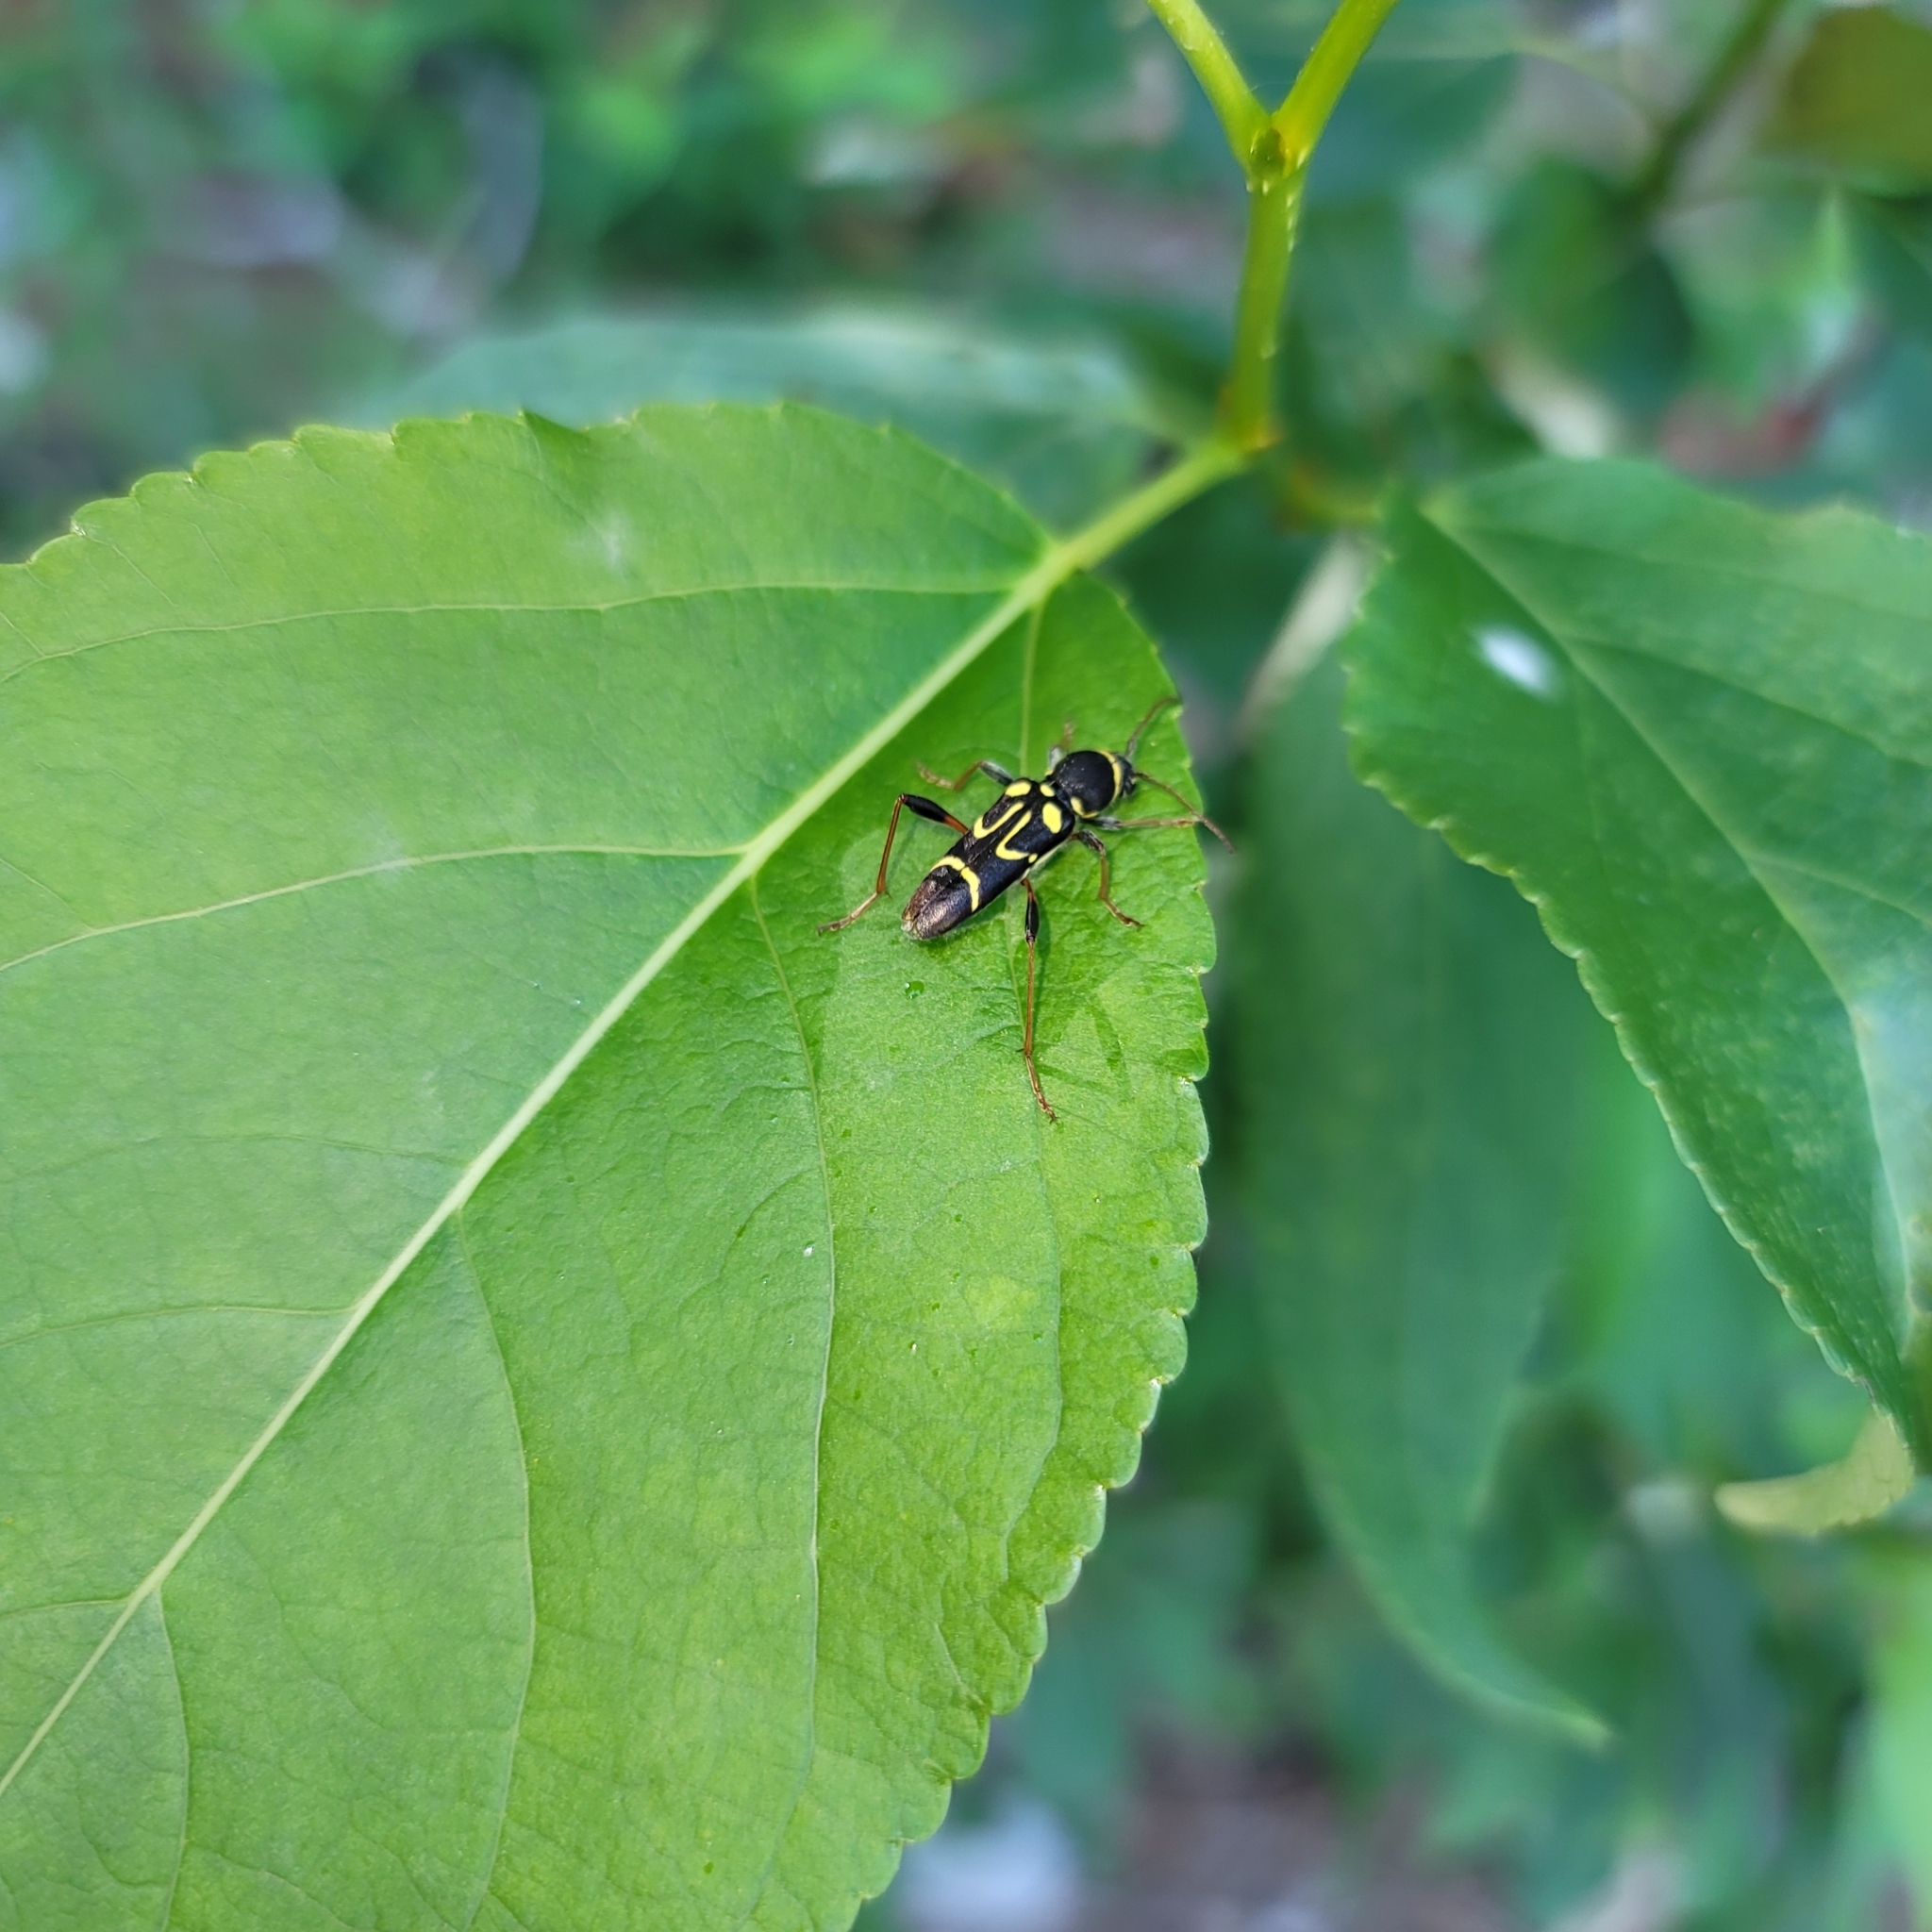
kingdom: Animalia
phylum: Arthropoda
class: Insecta
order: Coleoptera
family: Cerambycidae
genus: Clytus
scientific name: Clytus ruricola
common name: Round-necked longhorn beetle
